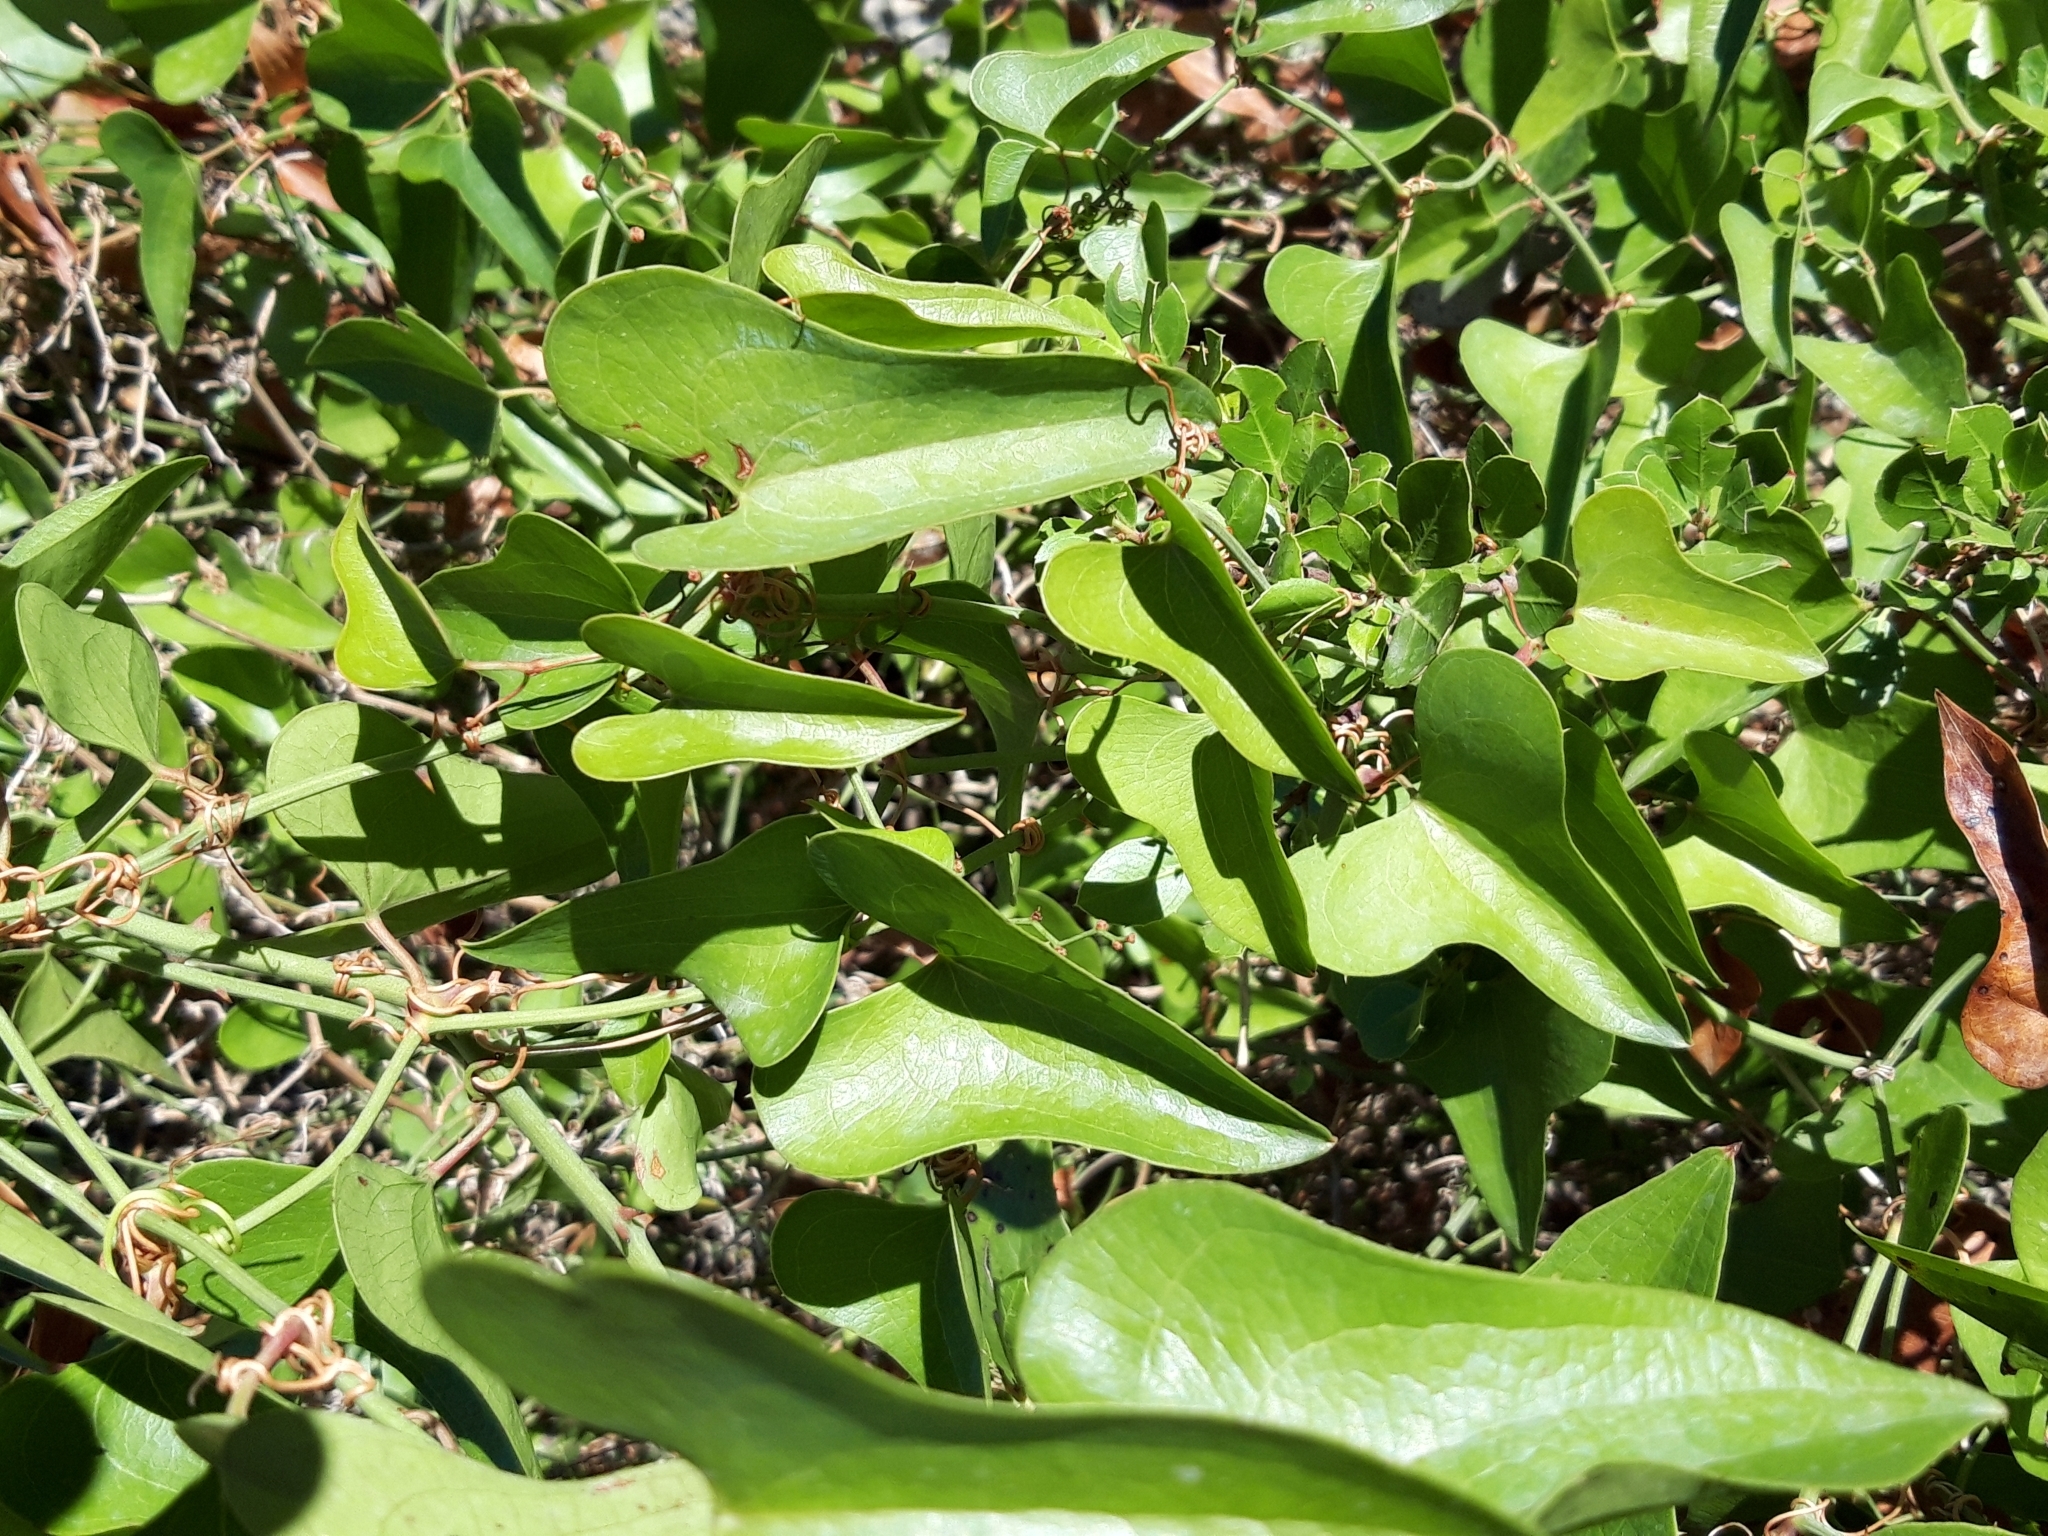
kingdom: Plantae
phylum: Tracheophyta
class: Liliopsida
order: Liliales
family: Smilacaceae
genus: Smilax
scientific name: Smilax aspera
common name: Common smilax
